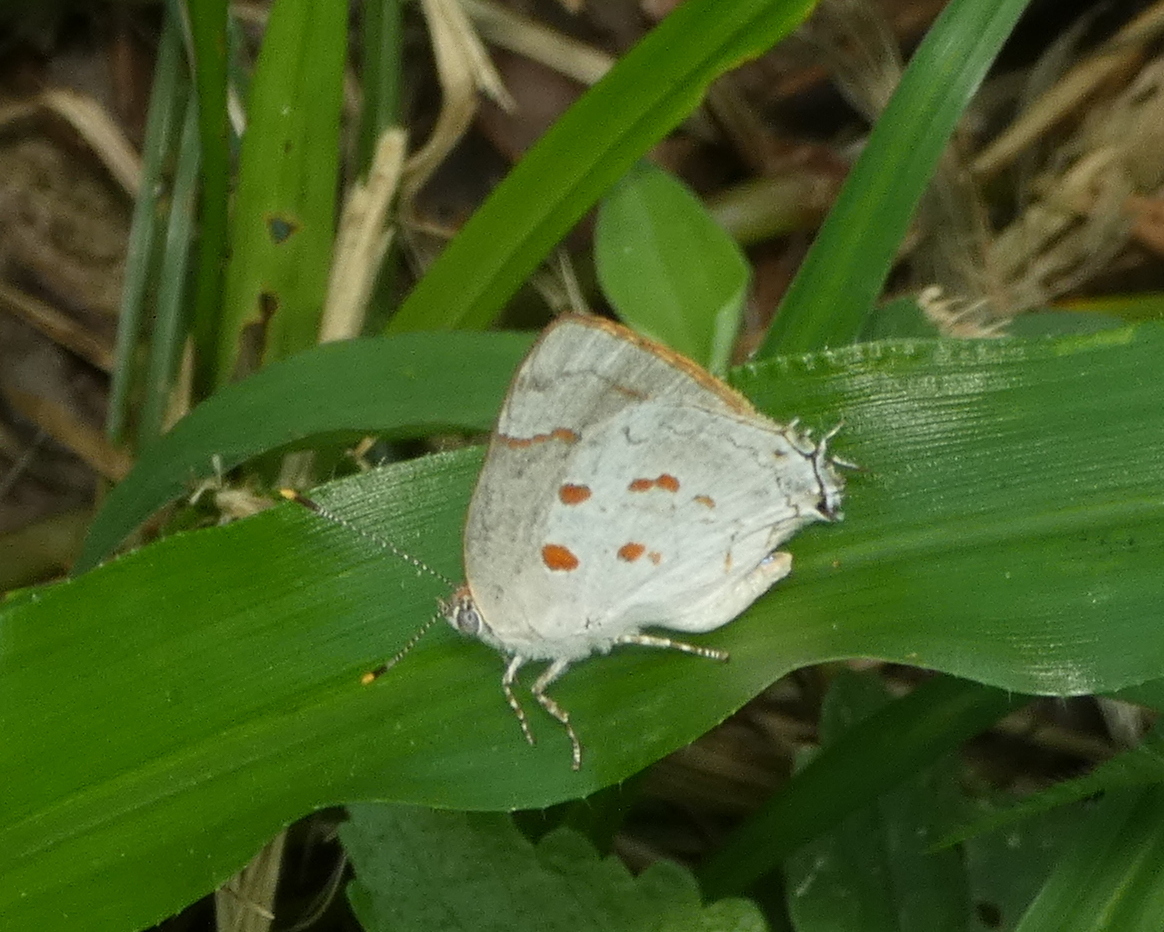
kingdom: Animalia
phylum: Arthropoda
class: Insecta
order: Lepidoptera
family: Lycaenidae
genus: Tmolus
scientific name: Tmolus echion
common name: Red-spotted hairstreak
